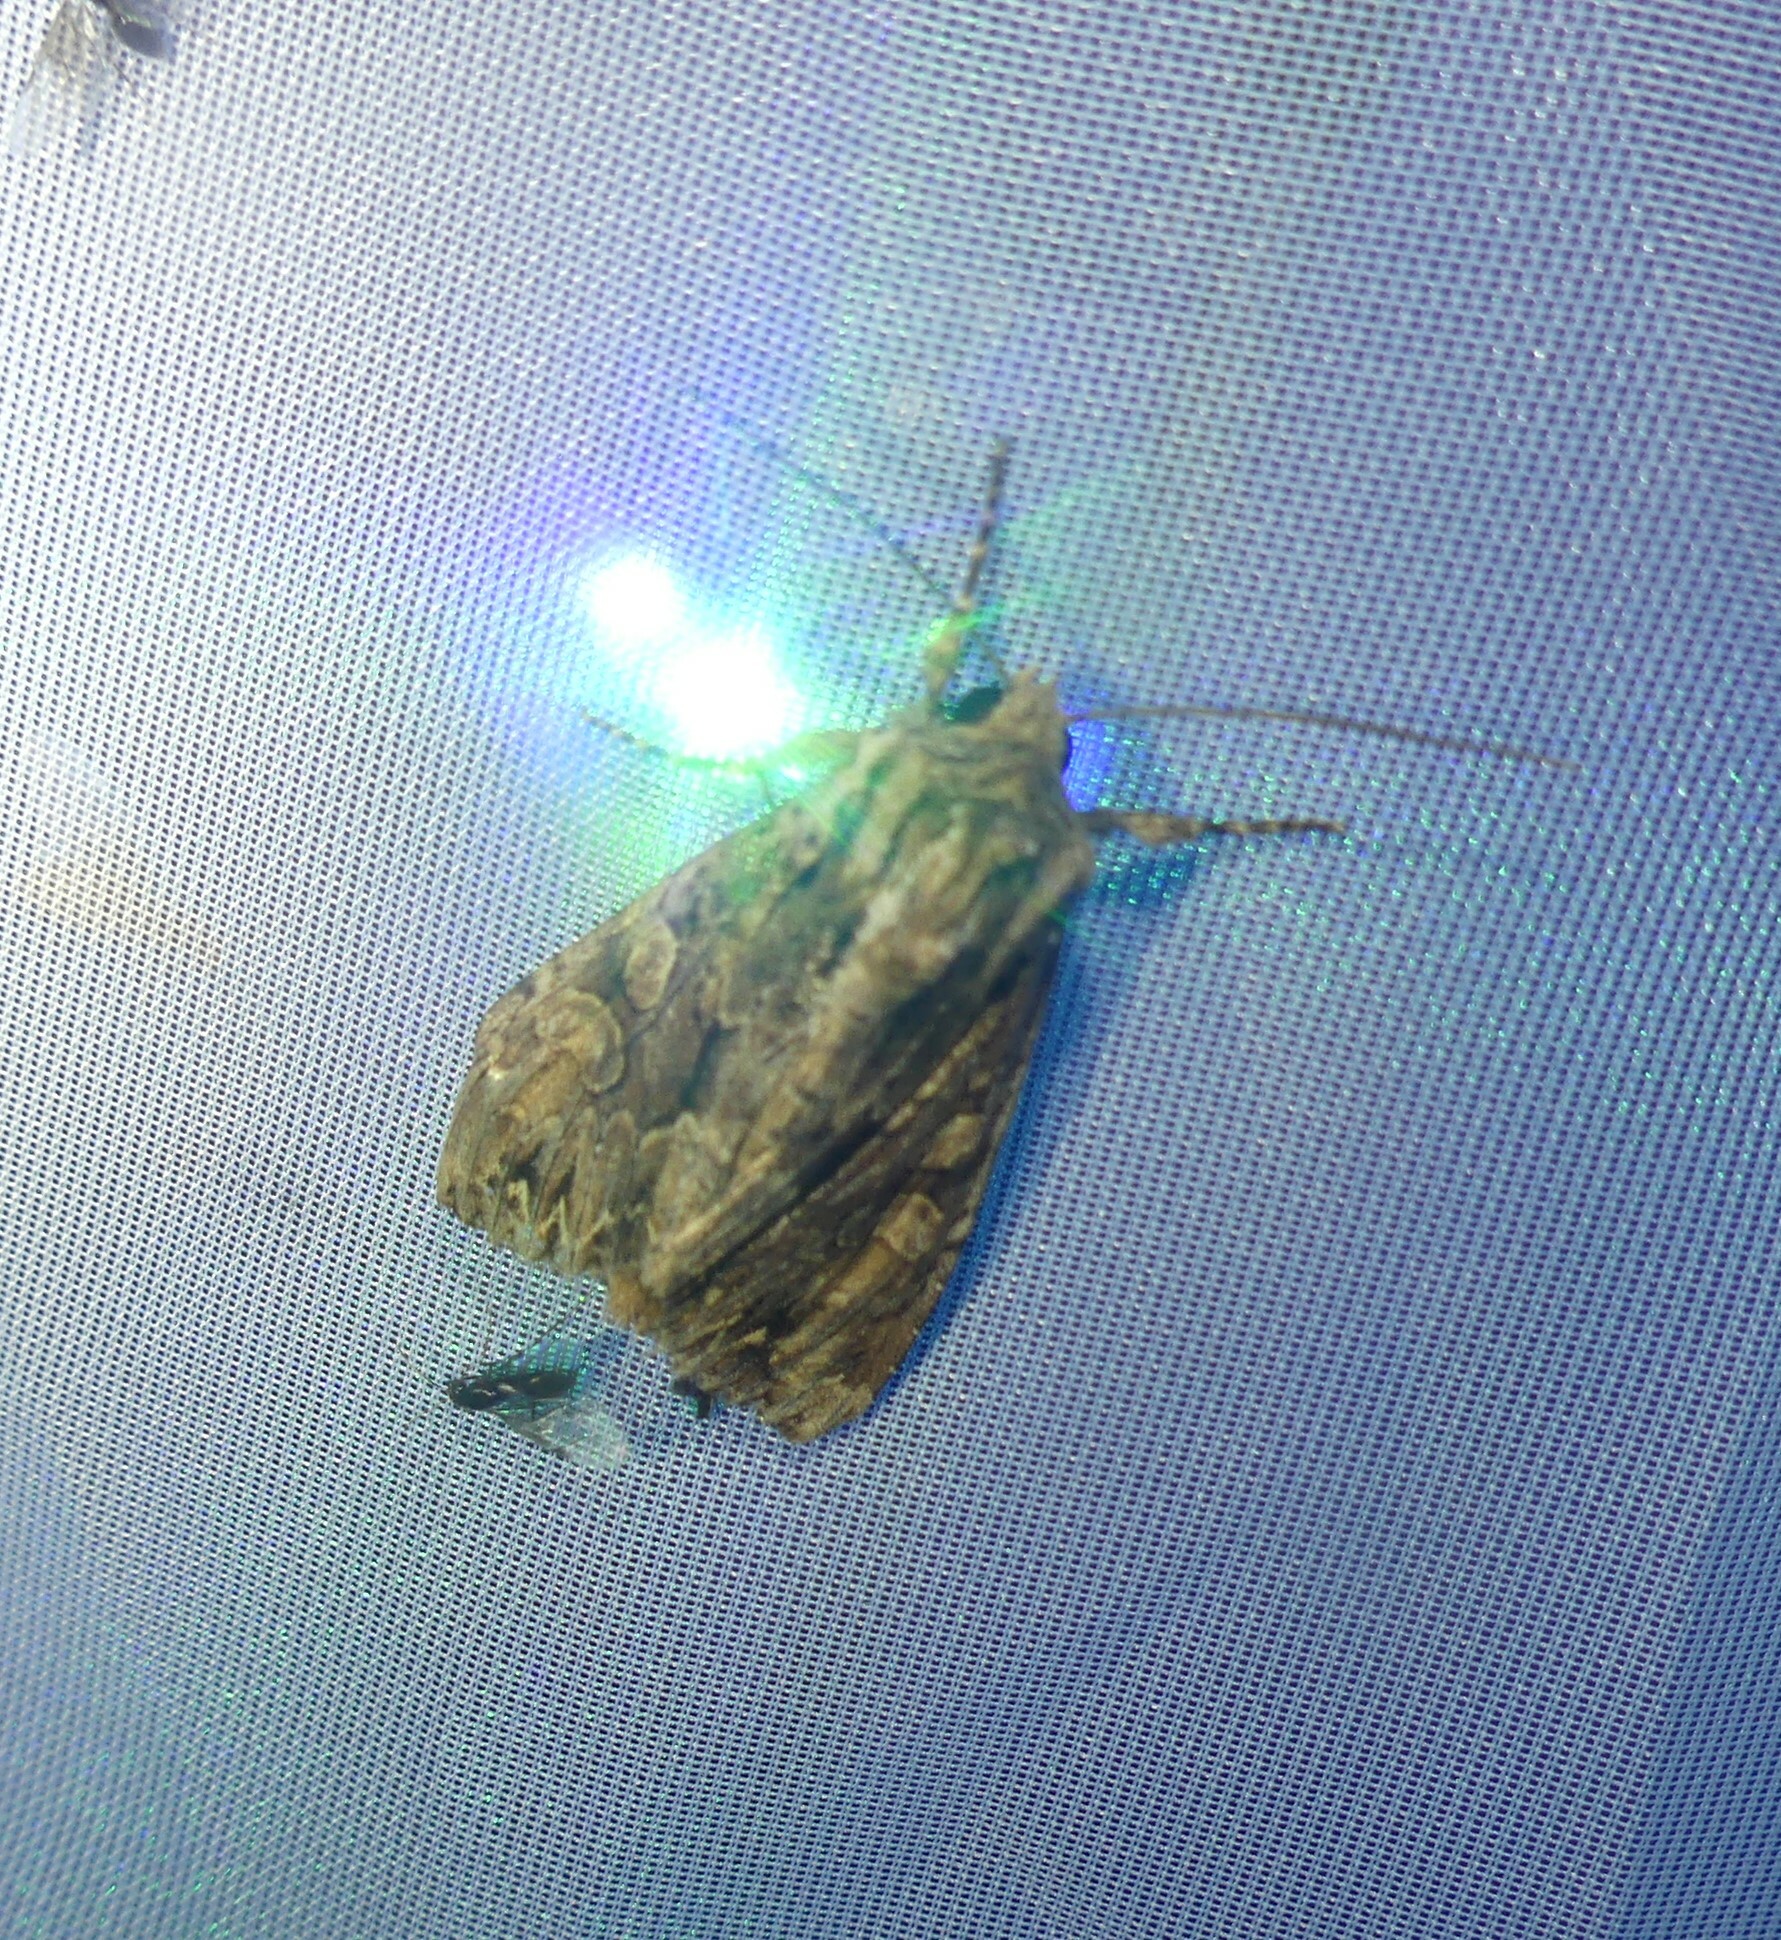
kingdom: Animalia
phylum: Arthropoda
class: Insecta
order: Lepidoptera
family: Noctuidae
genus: Apamea
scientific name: Apamea monoglypha
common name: Dark arches
